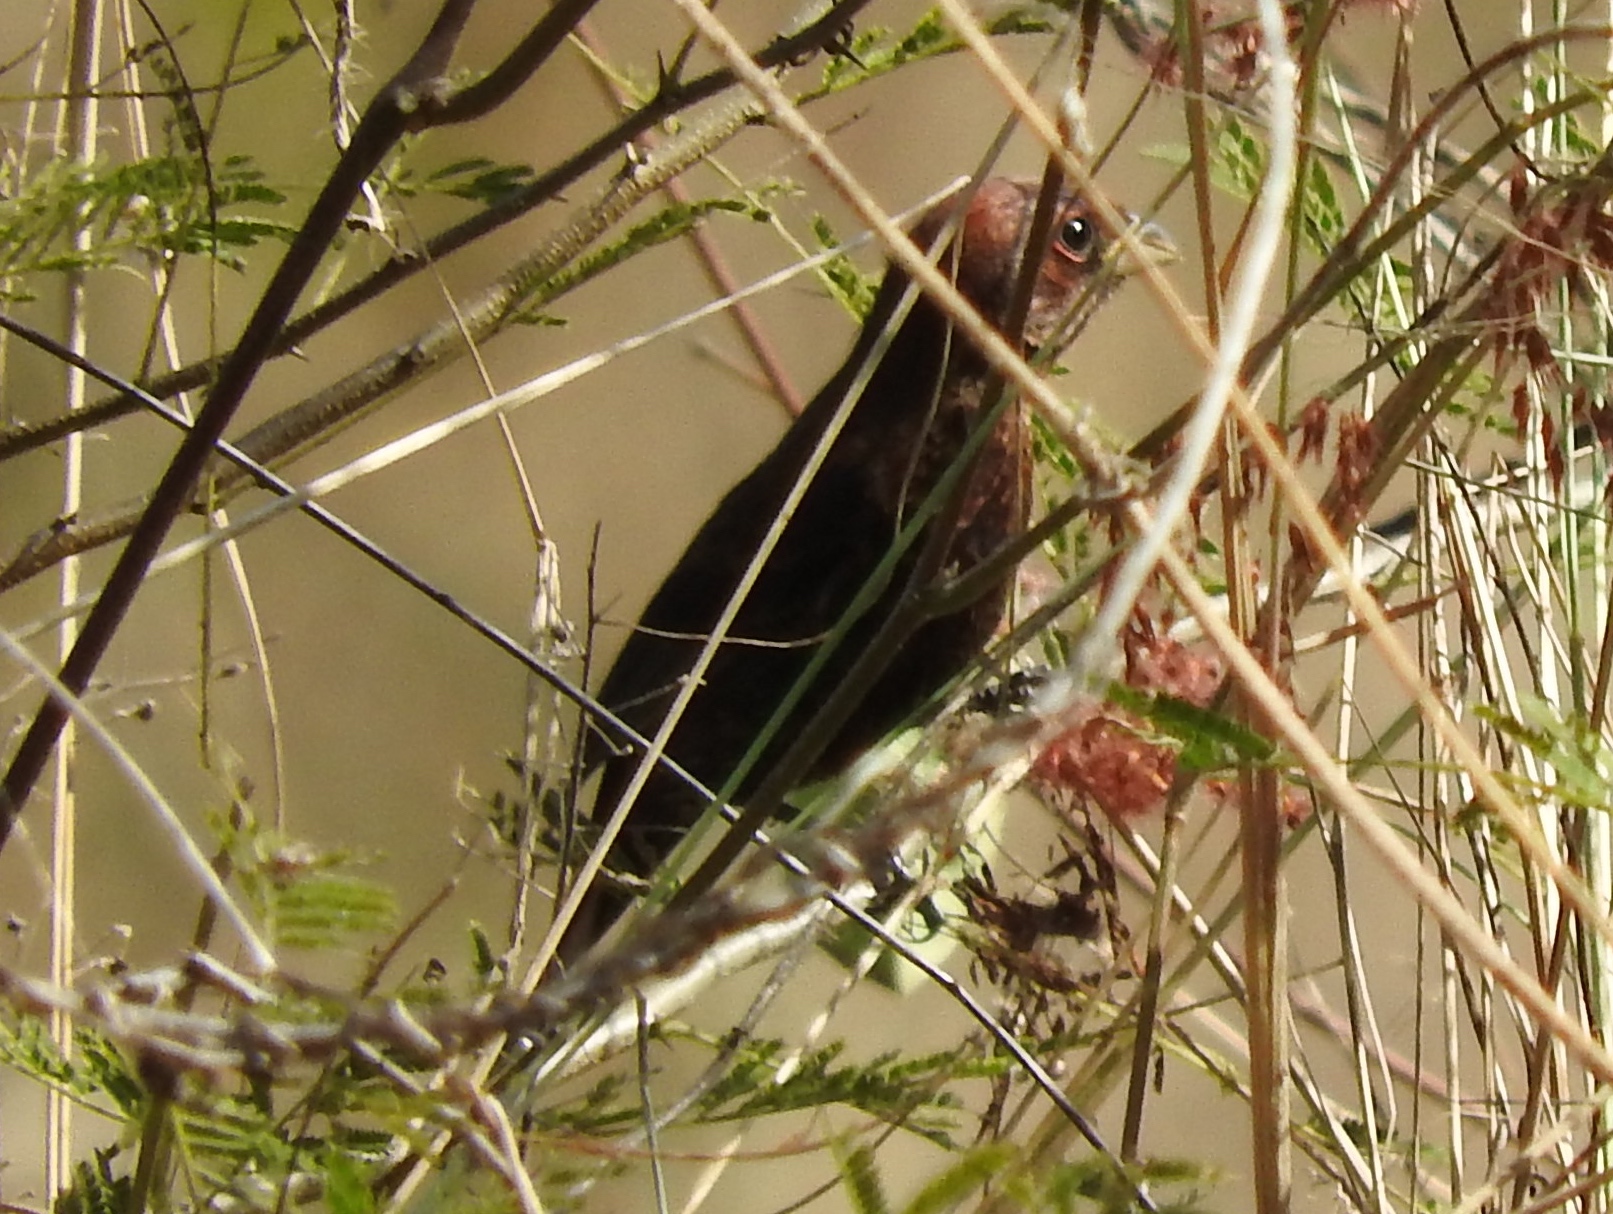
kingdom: Animalia
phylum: Chordata
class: Aves
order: Passeriformes
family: Cardinalidae
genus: Passerina
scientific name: Passerina versicolor
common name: Varied bunting
